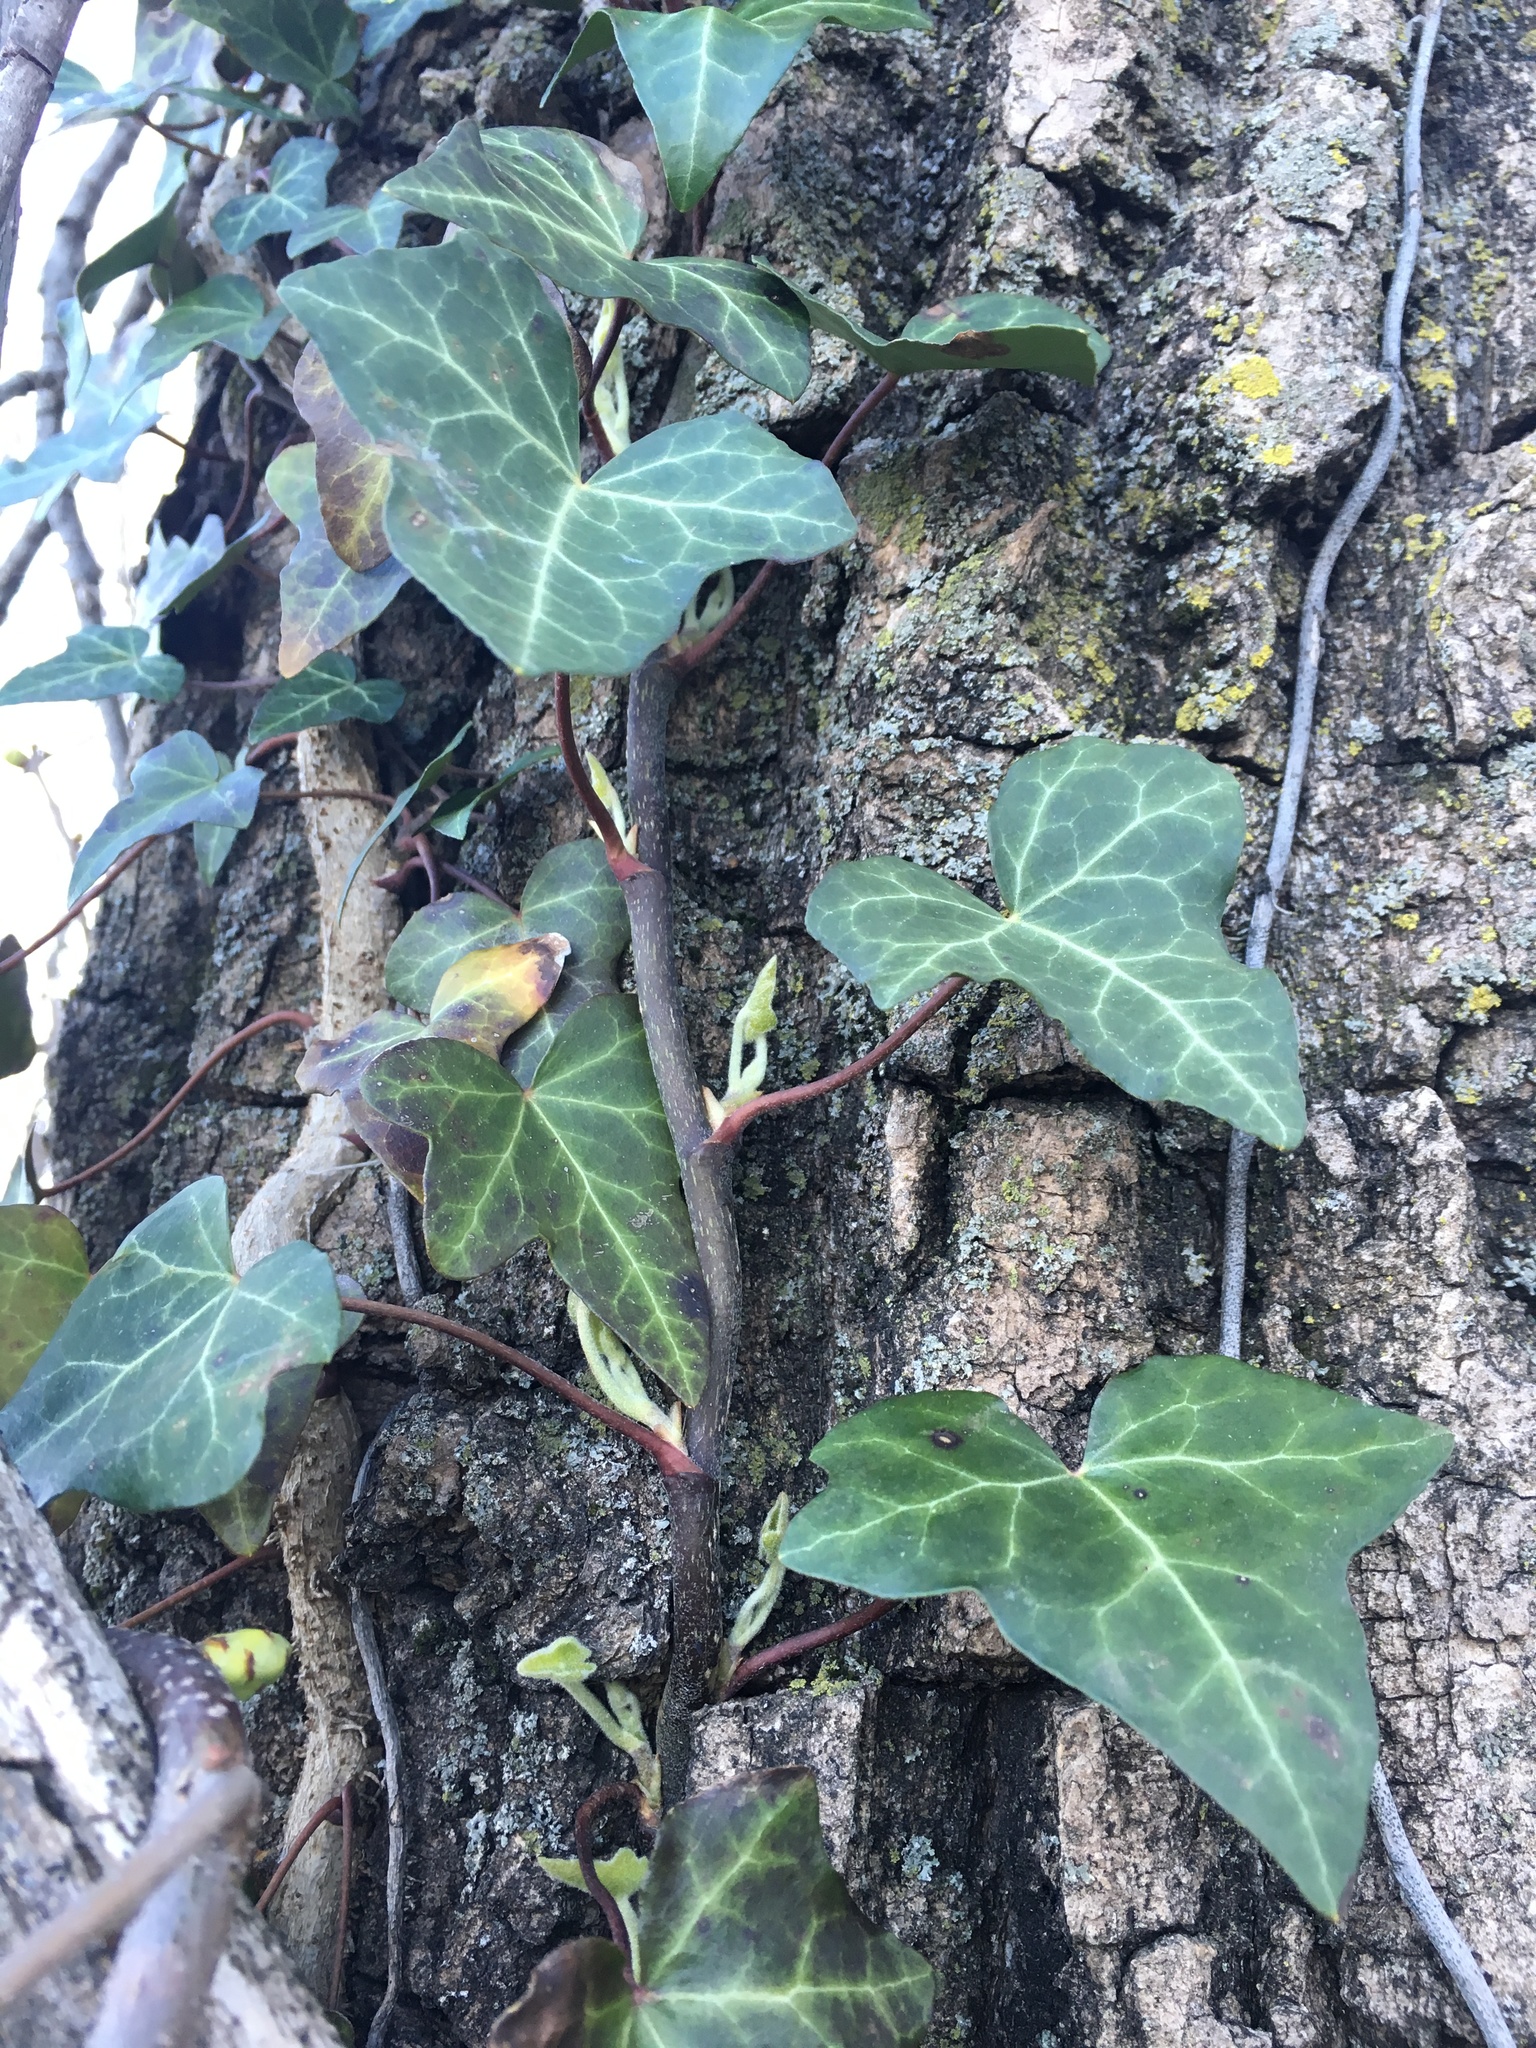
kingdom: Plantae
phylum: Tracheophyta
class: Magnoliopsida
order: Apiales
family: Araliaceae
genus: Hedera
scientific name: Hedera helix
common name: Ivy
